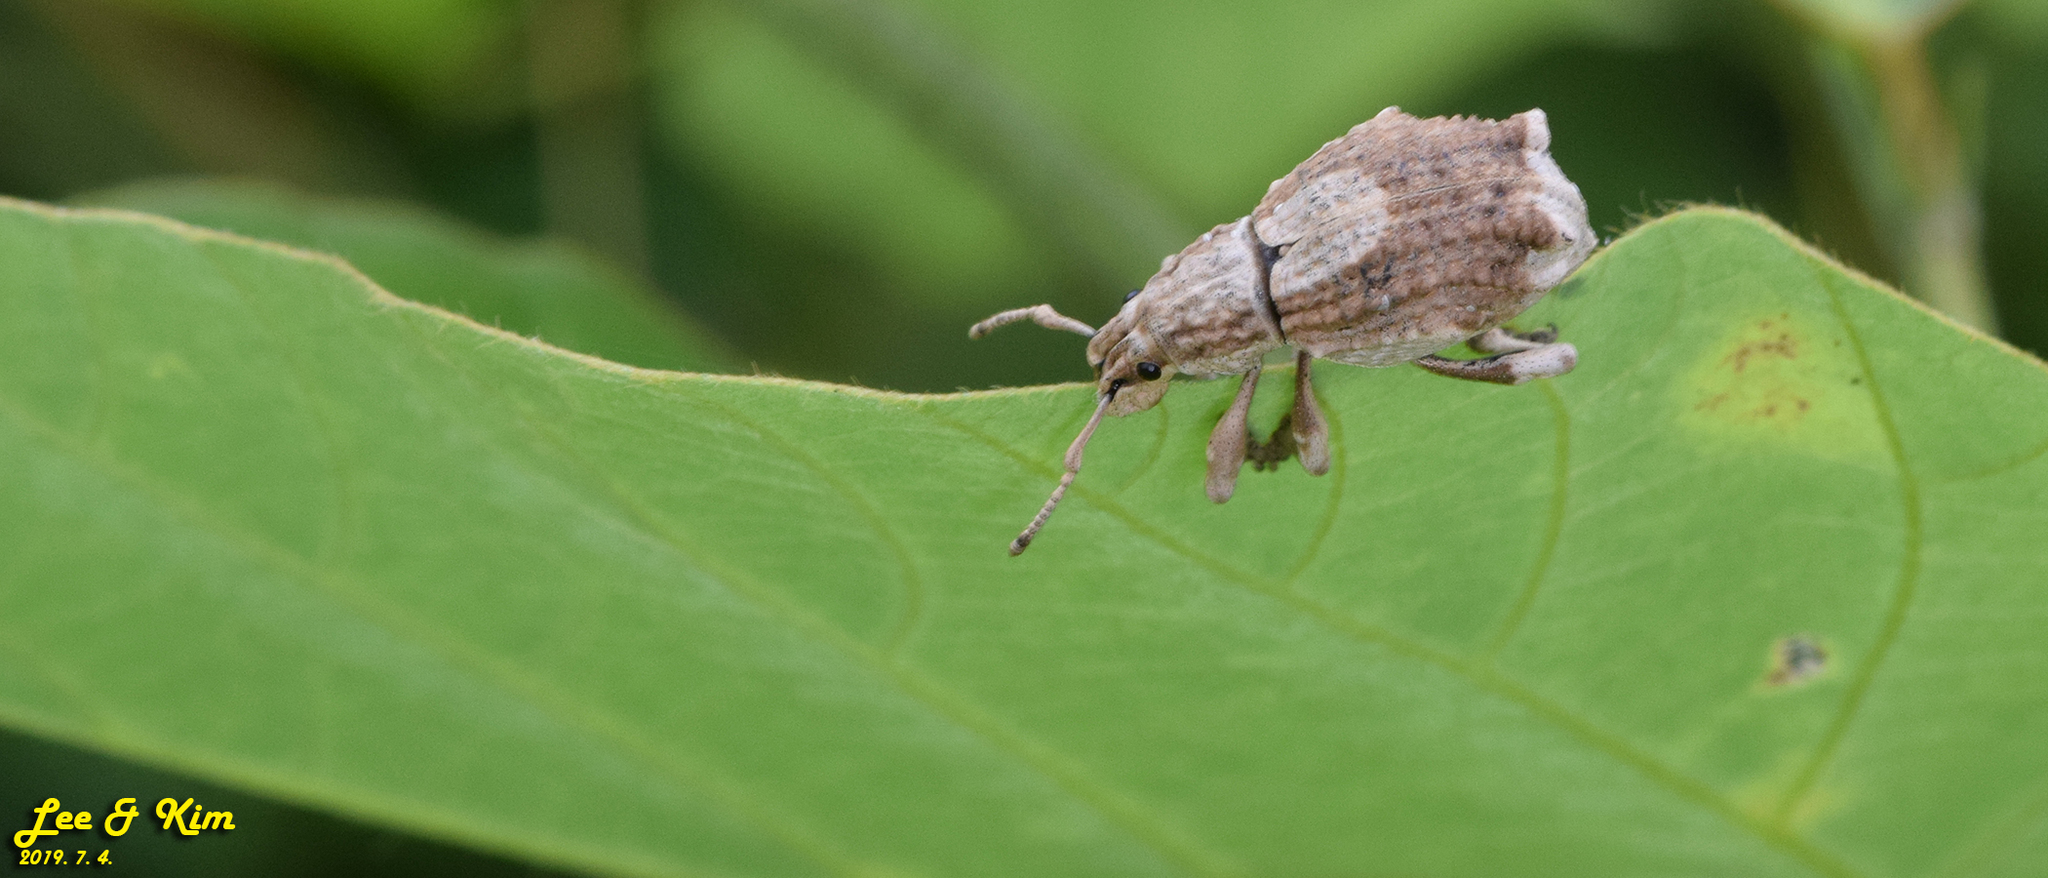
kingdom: Animalia
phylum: Arthropoda
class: Insecta
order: Coleoptera
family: Curculionidae
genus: Episomus
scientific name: Episomus turritus
